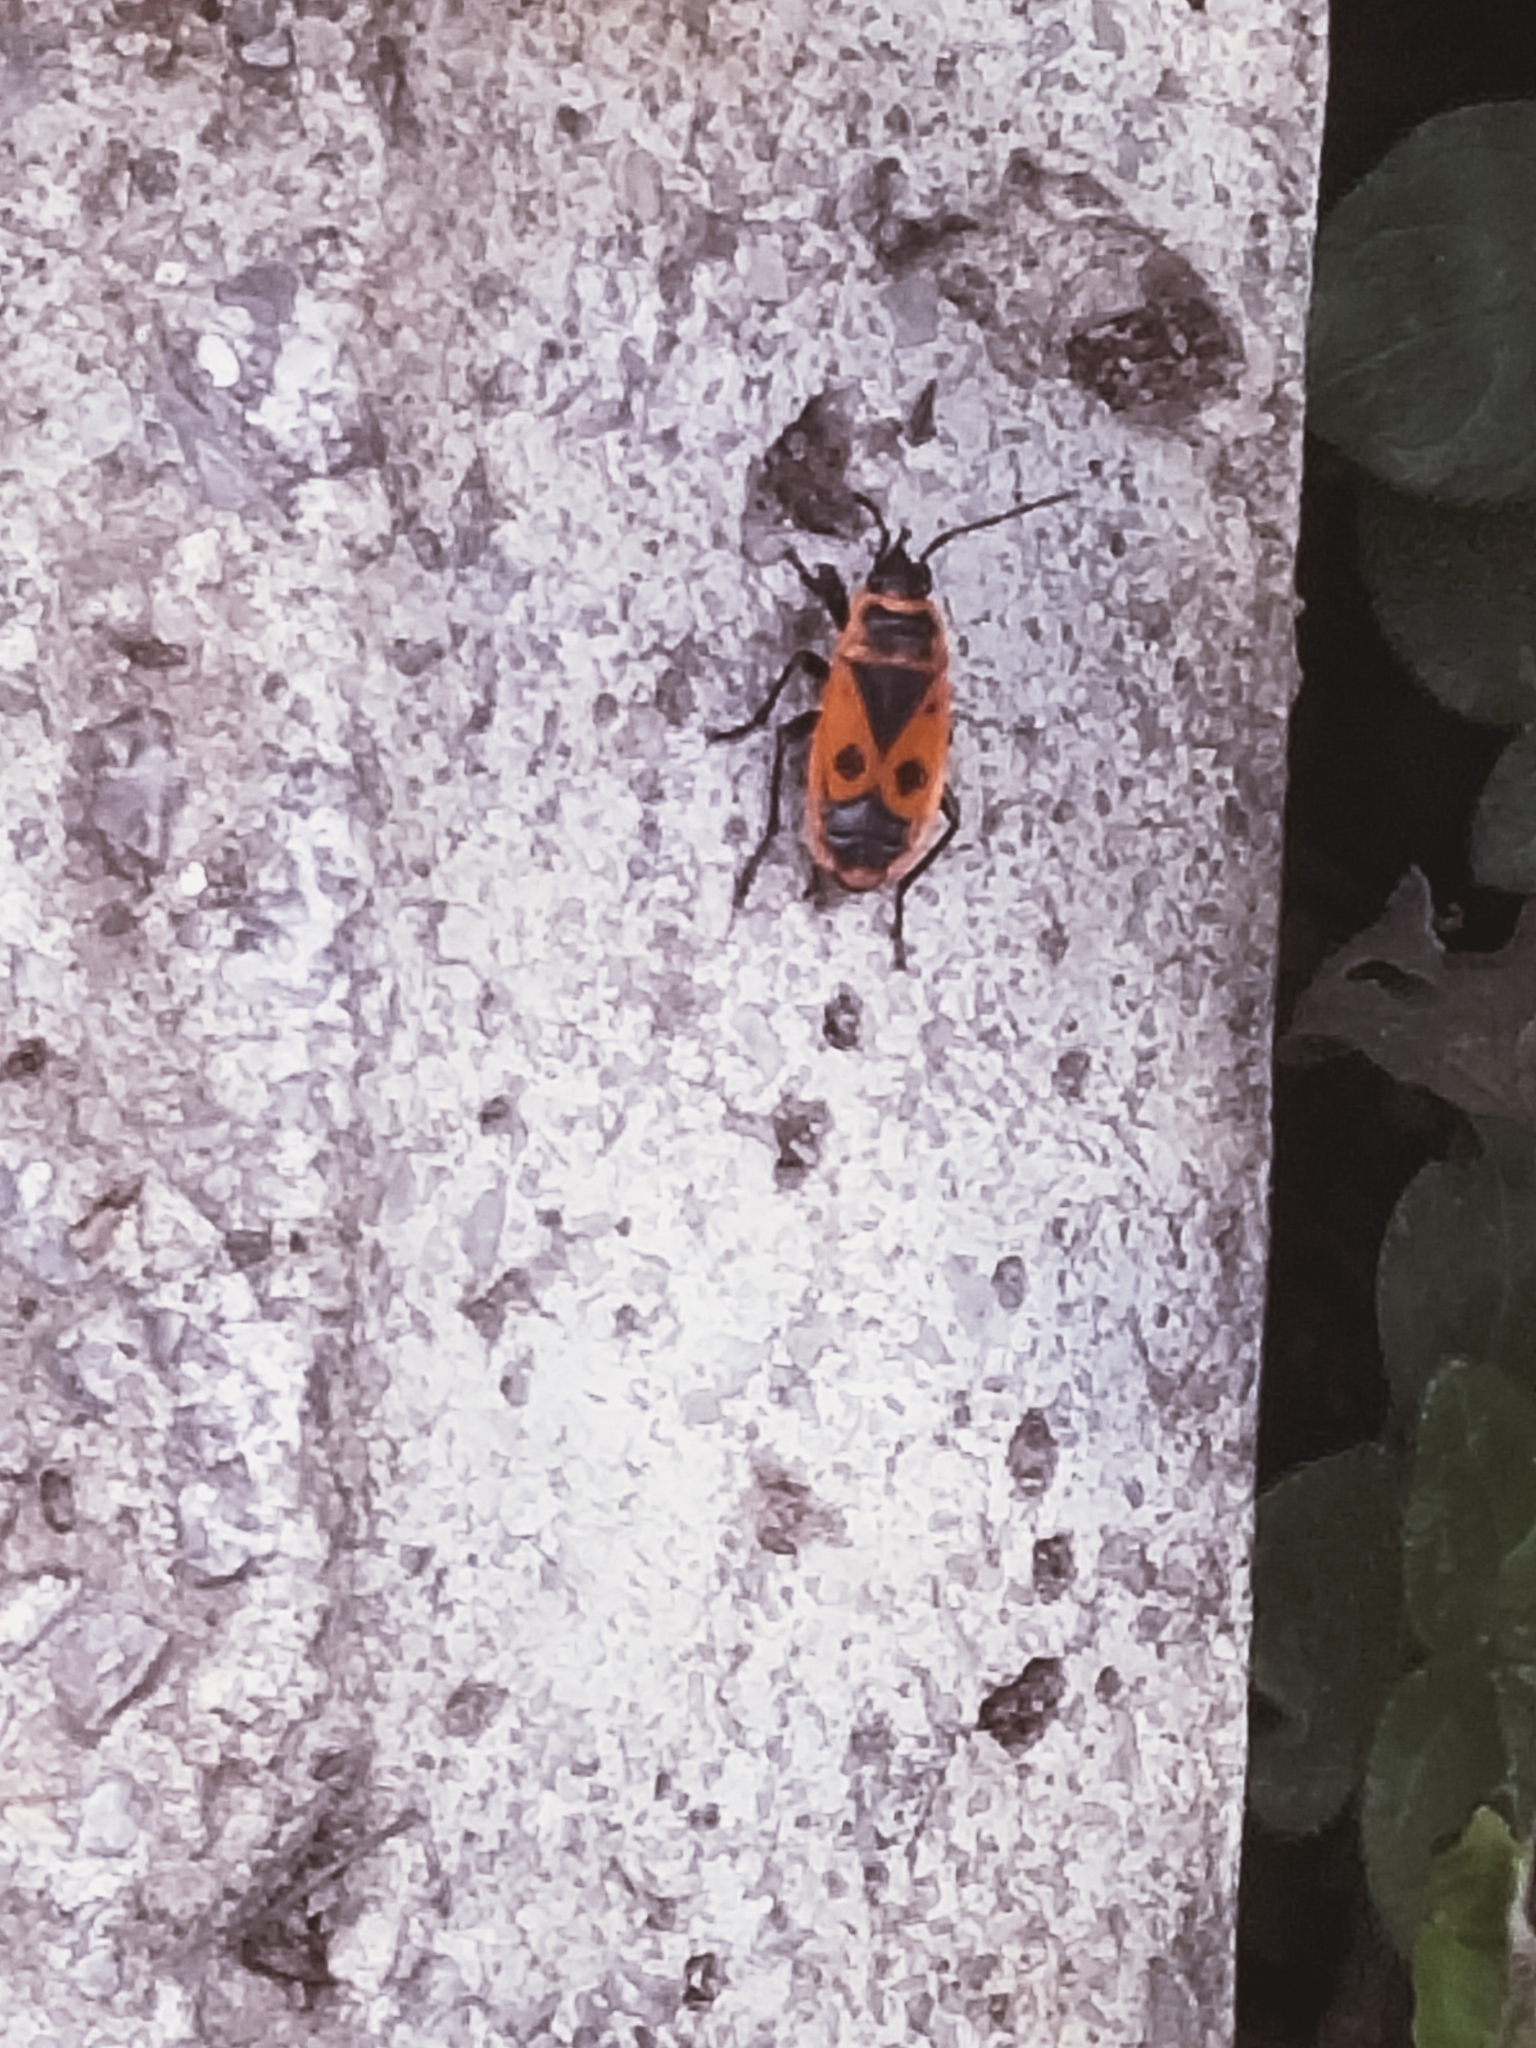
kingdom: Animalia
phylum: Arthropoda
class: Insecta
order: Hemiptera
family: Pyrrhocoridae
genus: Pyrrhocoris
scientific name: Pyrrhocoris apterus
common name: Firebug
